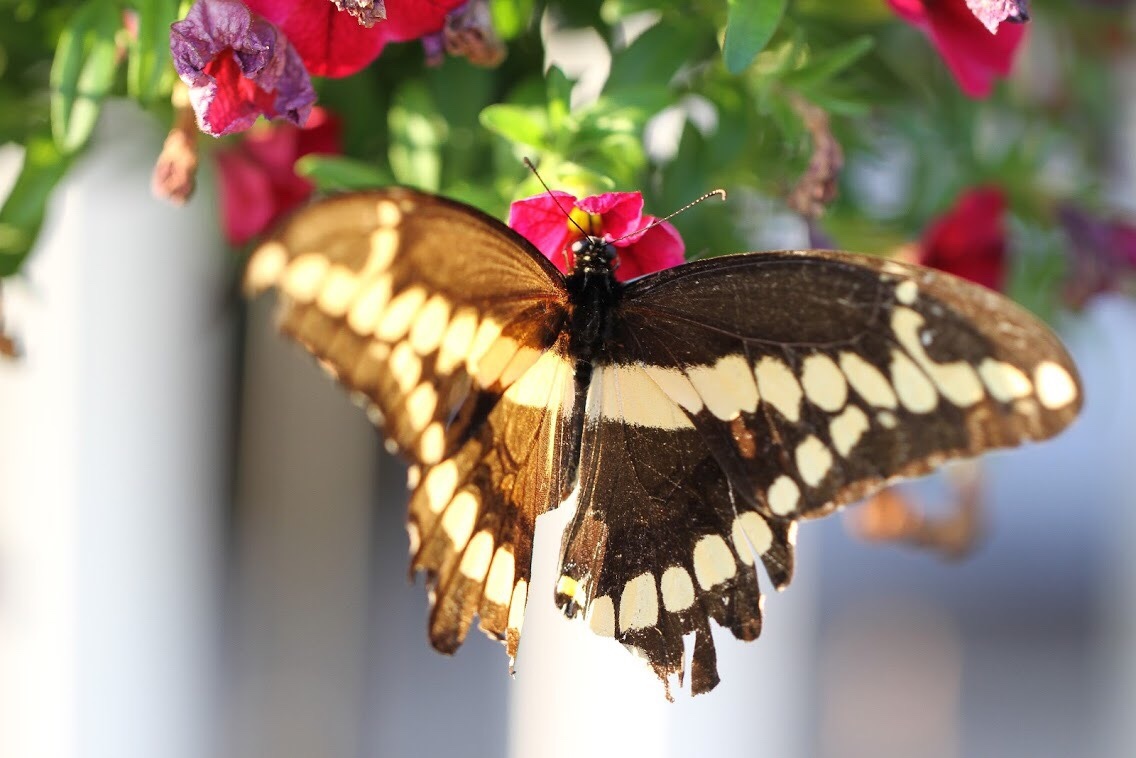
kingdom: Animalia
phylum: Arthropoda
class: Insecta
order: Lepidoptera
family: Papilionidae
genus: Papilio
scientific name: Papilio cresphontes
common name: Giant swallowtail
